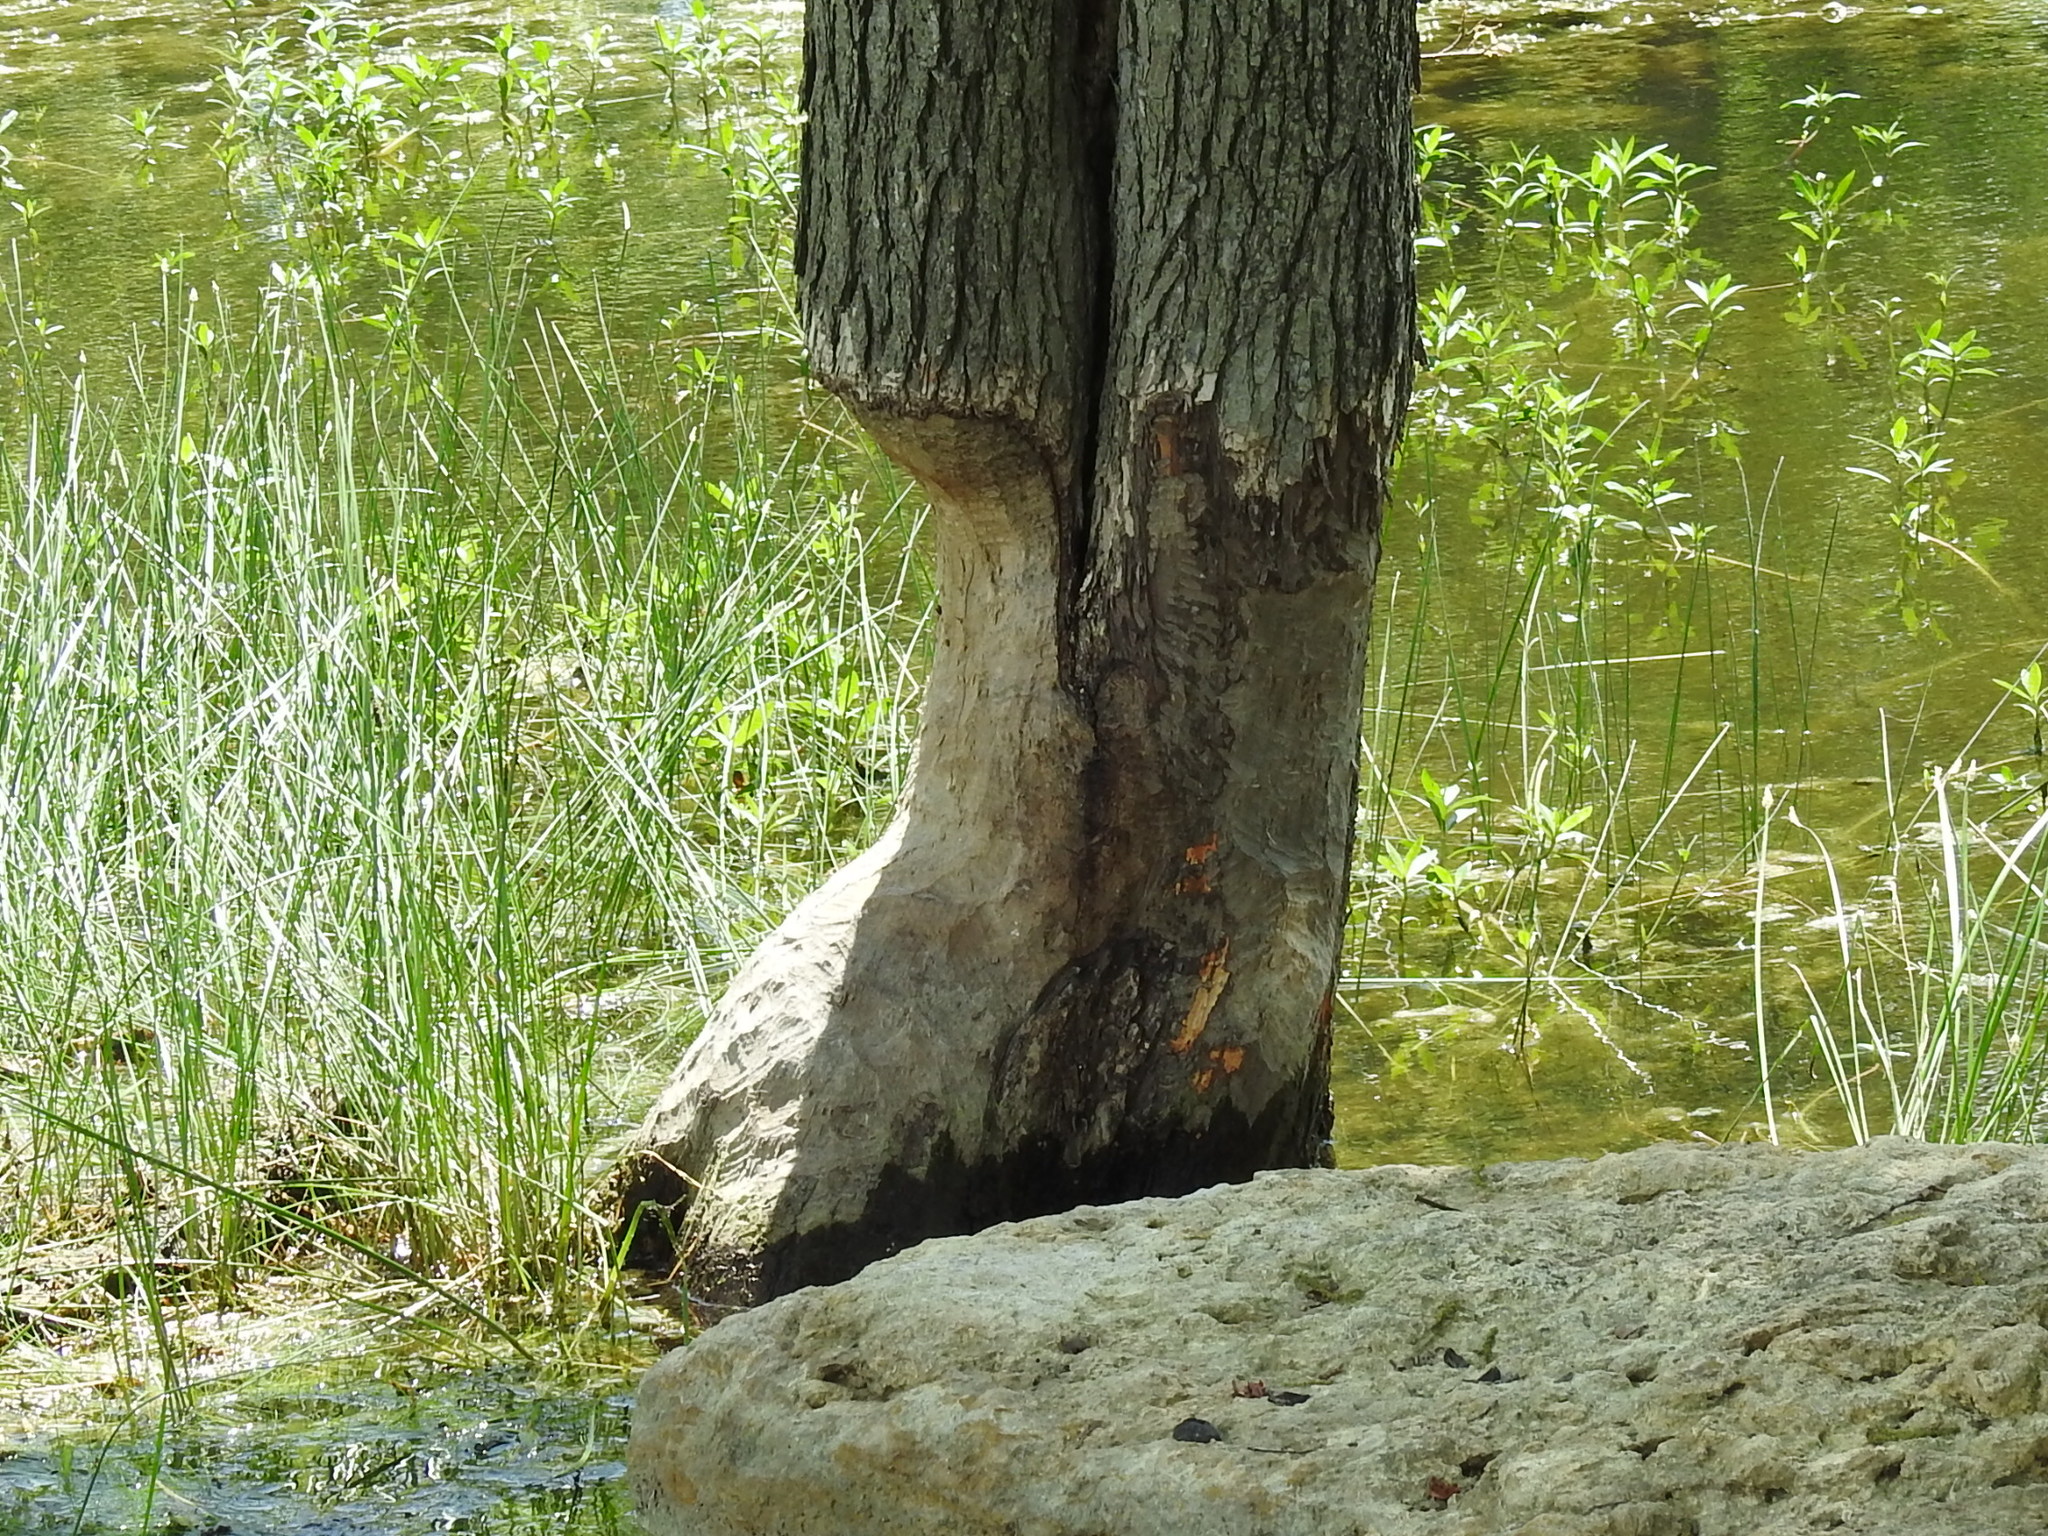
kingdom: Animalia
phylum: Chordata
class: Mammalia
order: Rodentia
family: Castoridae
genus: Castor
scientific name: Castor canadensis
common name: American beaver
